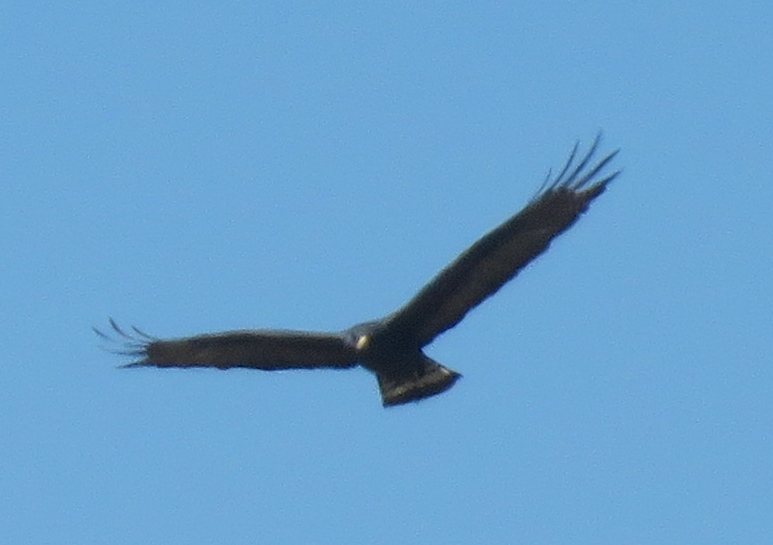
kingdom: Animalia
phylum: Chordata
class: Aves
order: Accipitriformes
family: Accipitridae
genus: Buteo
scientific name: Buteo albonotatus
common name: Zone-tailed hawk
